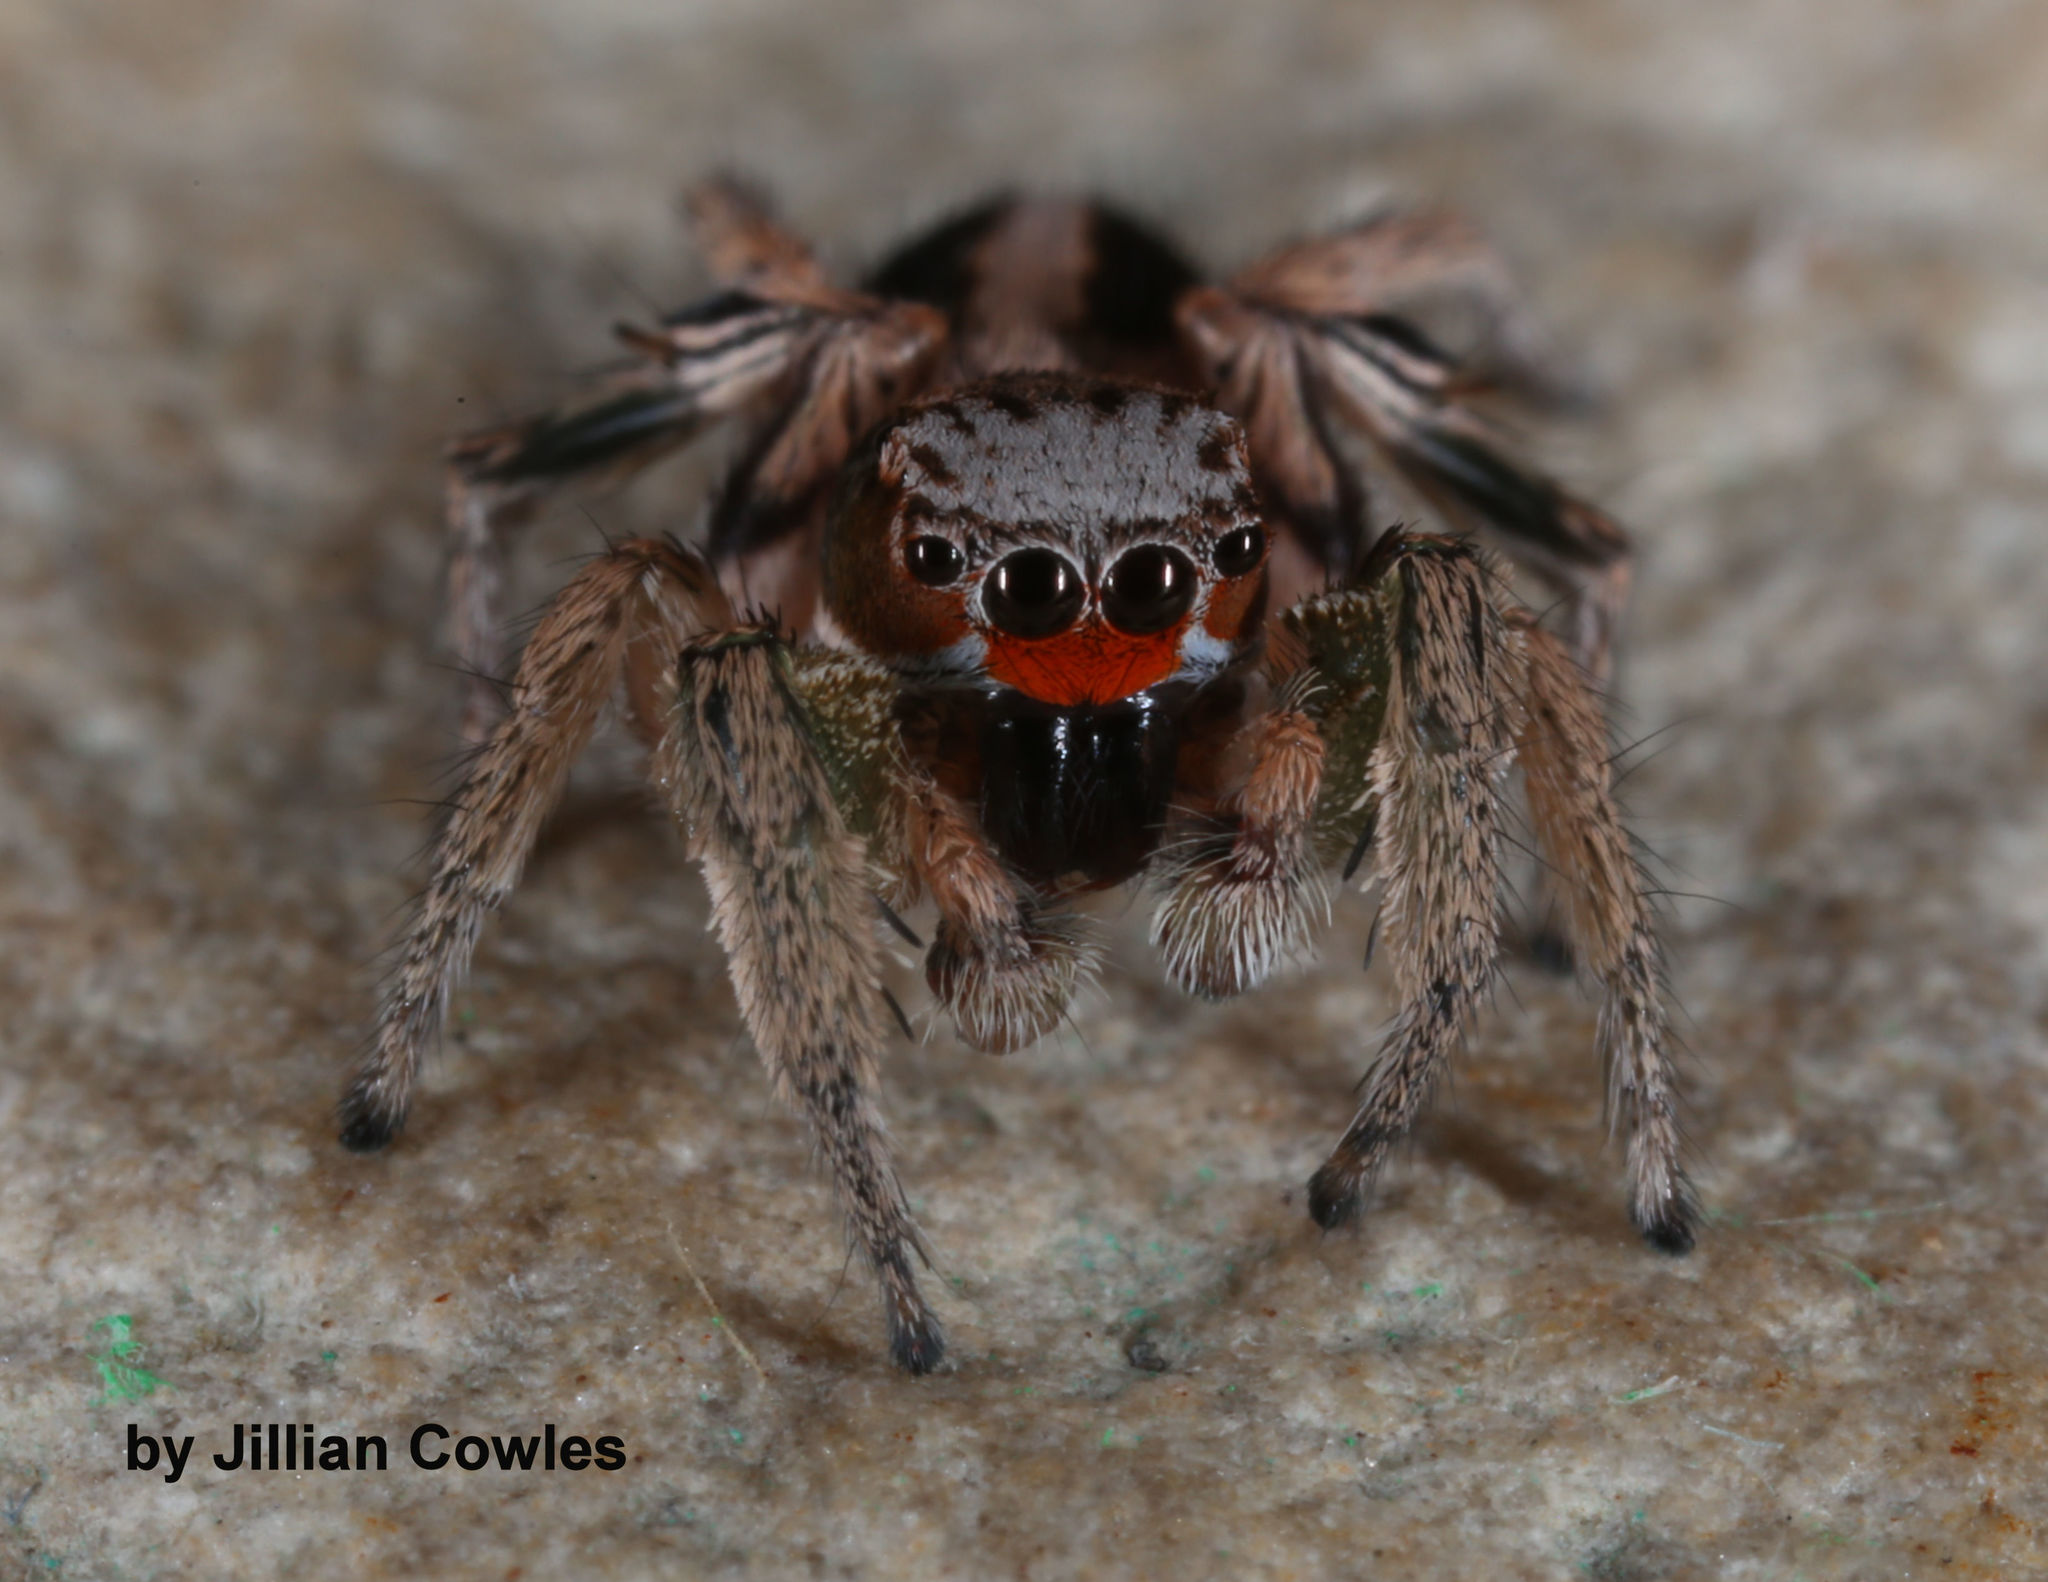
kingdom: Animalia
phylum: Arthropoda
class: Arachnida
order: Araneae
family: Salticidae
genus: Habronattus
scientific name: Habronattus virgulatus
